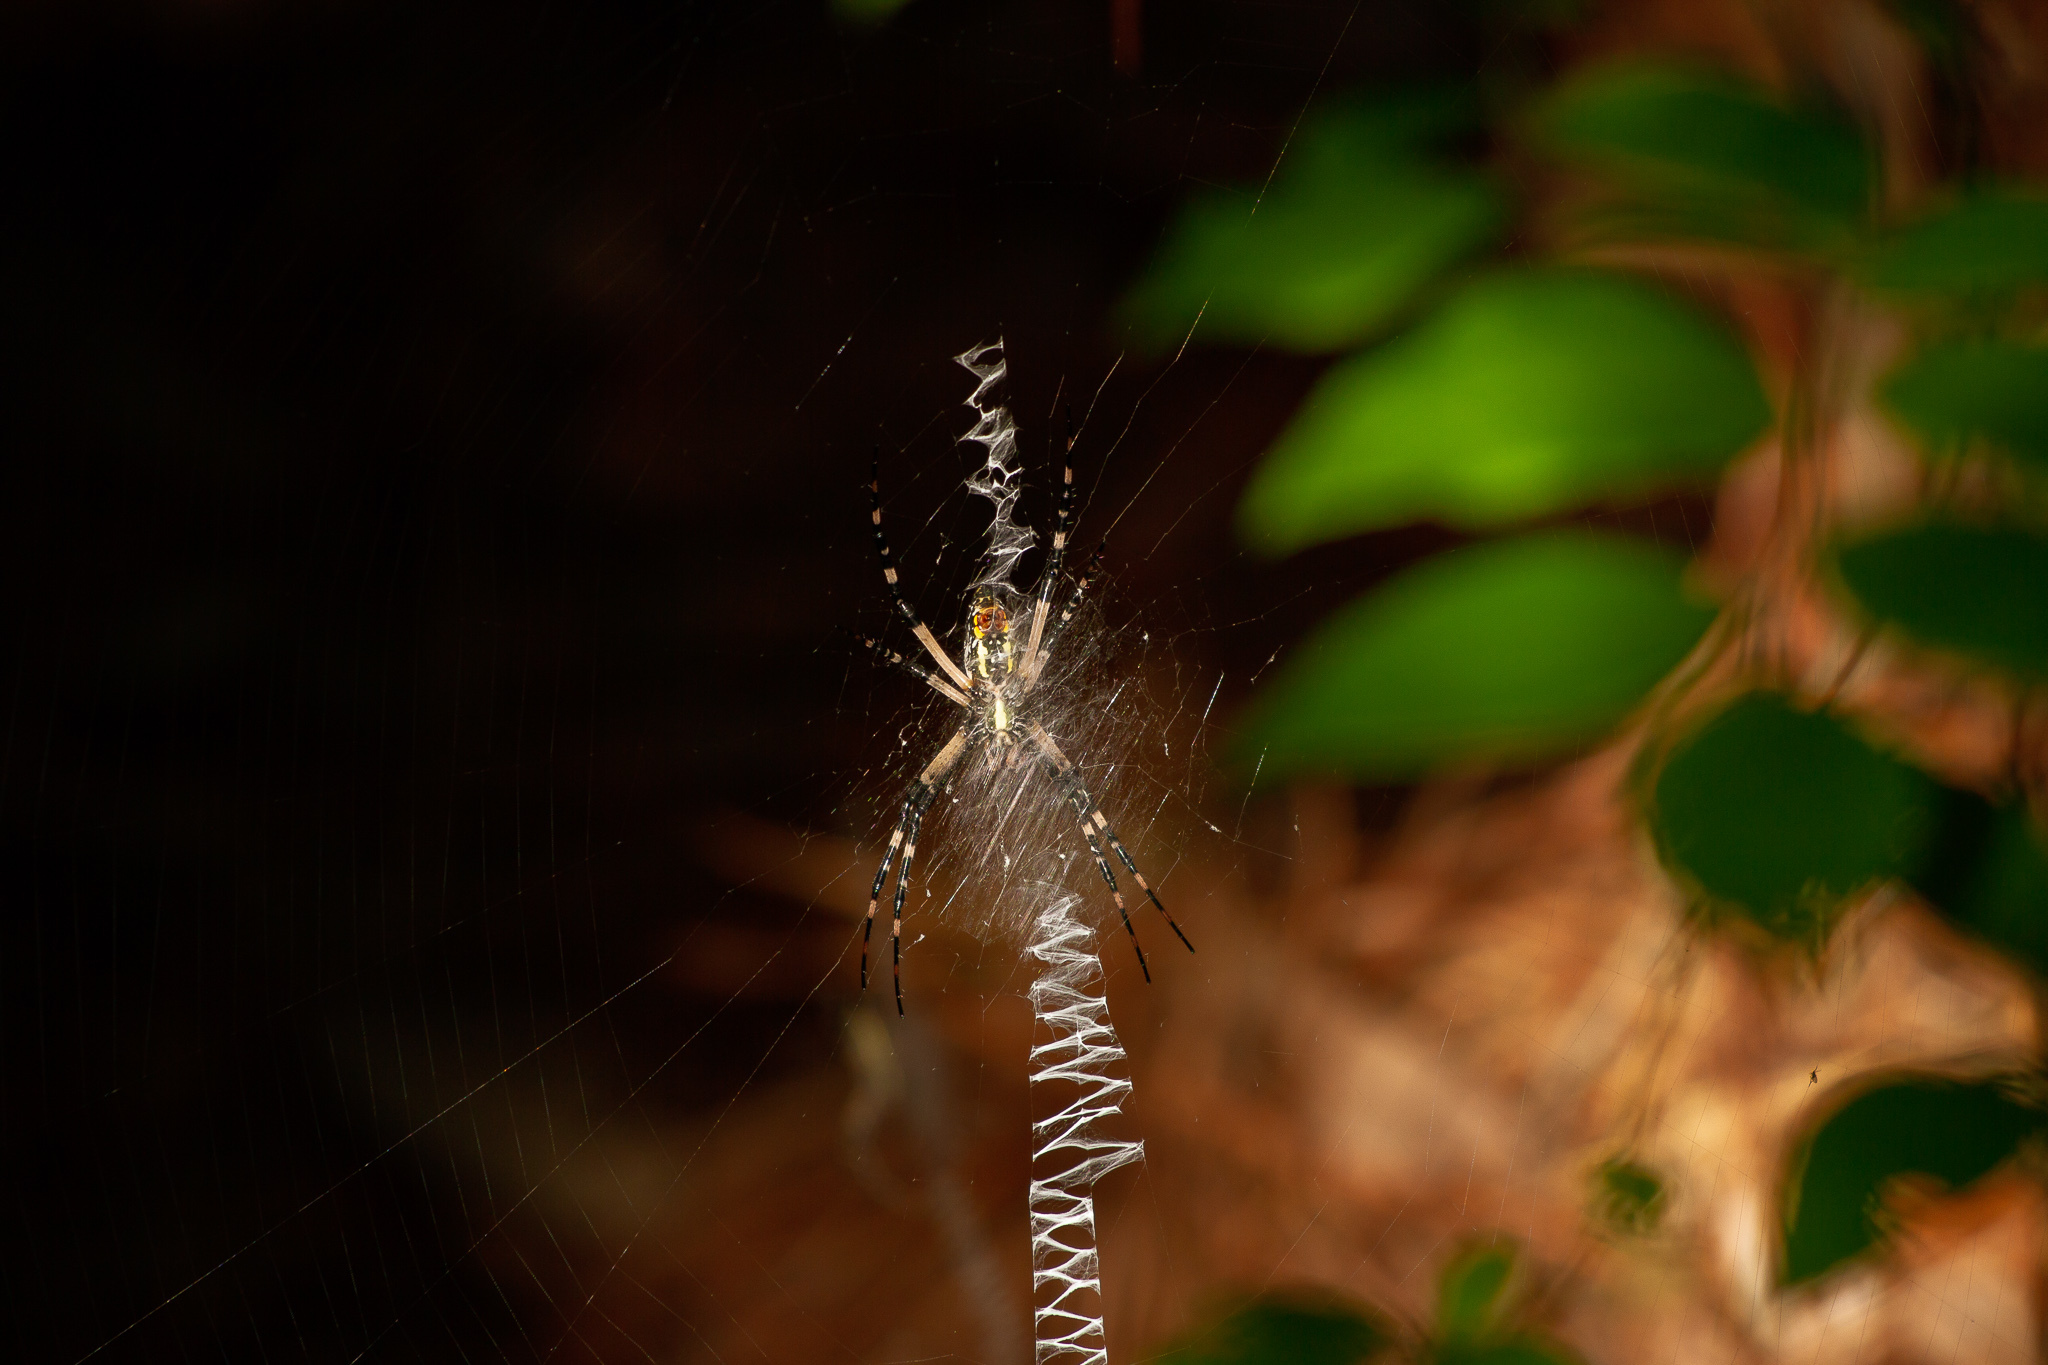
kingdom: Animalia
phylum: Arthropoda
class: Arachnida
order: Araneae
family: Araneidae
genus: Argiope
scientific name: Argiope aurantia
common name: Orb weavers
